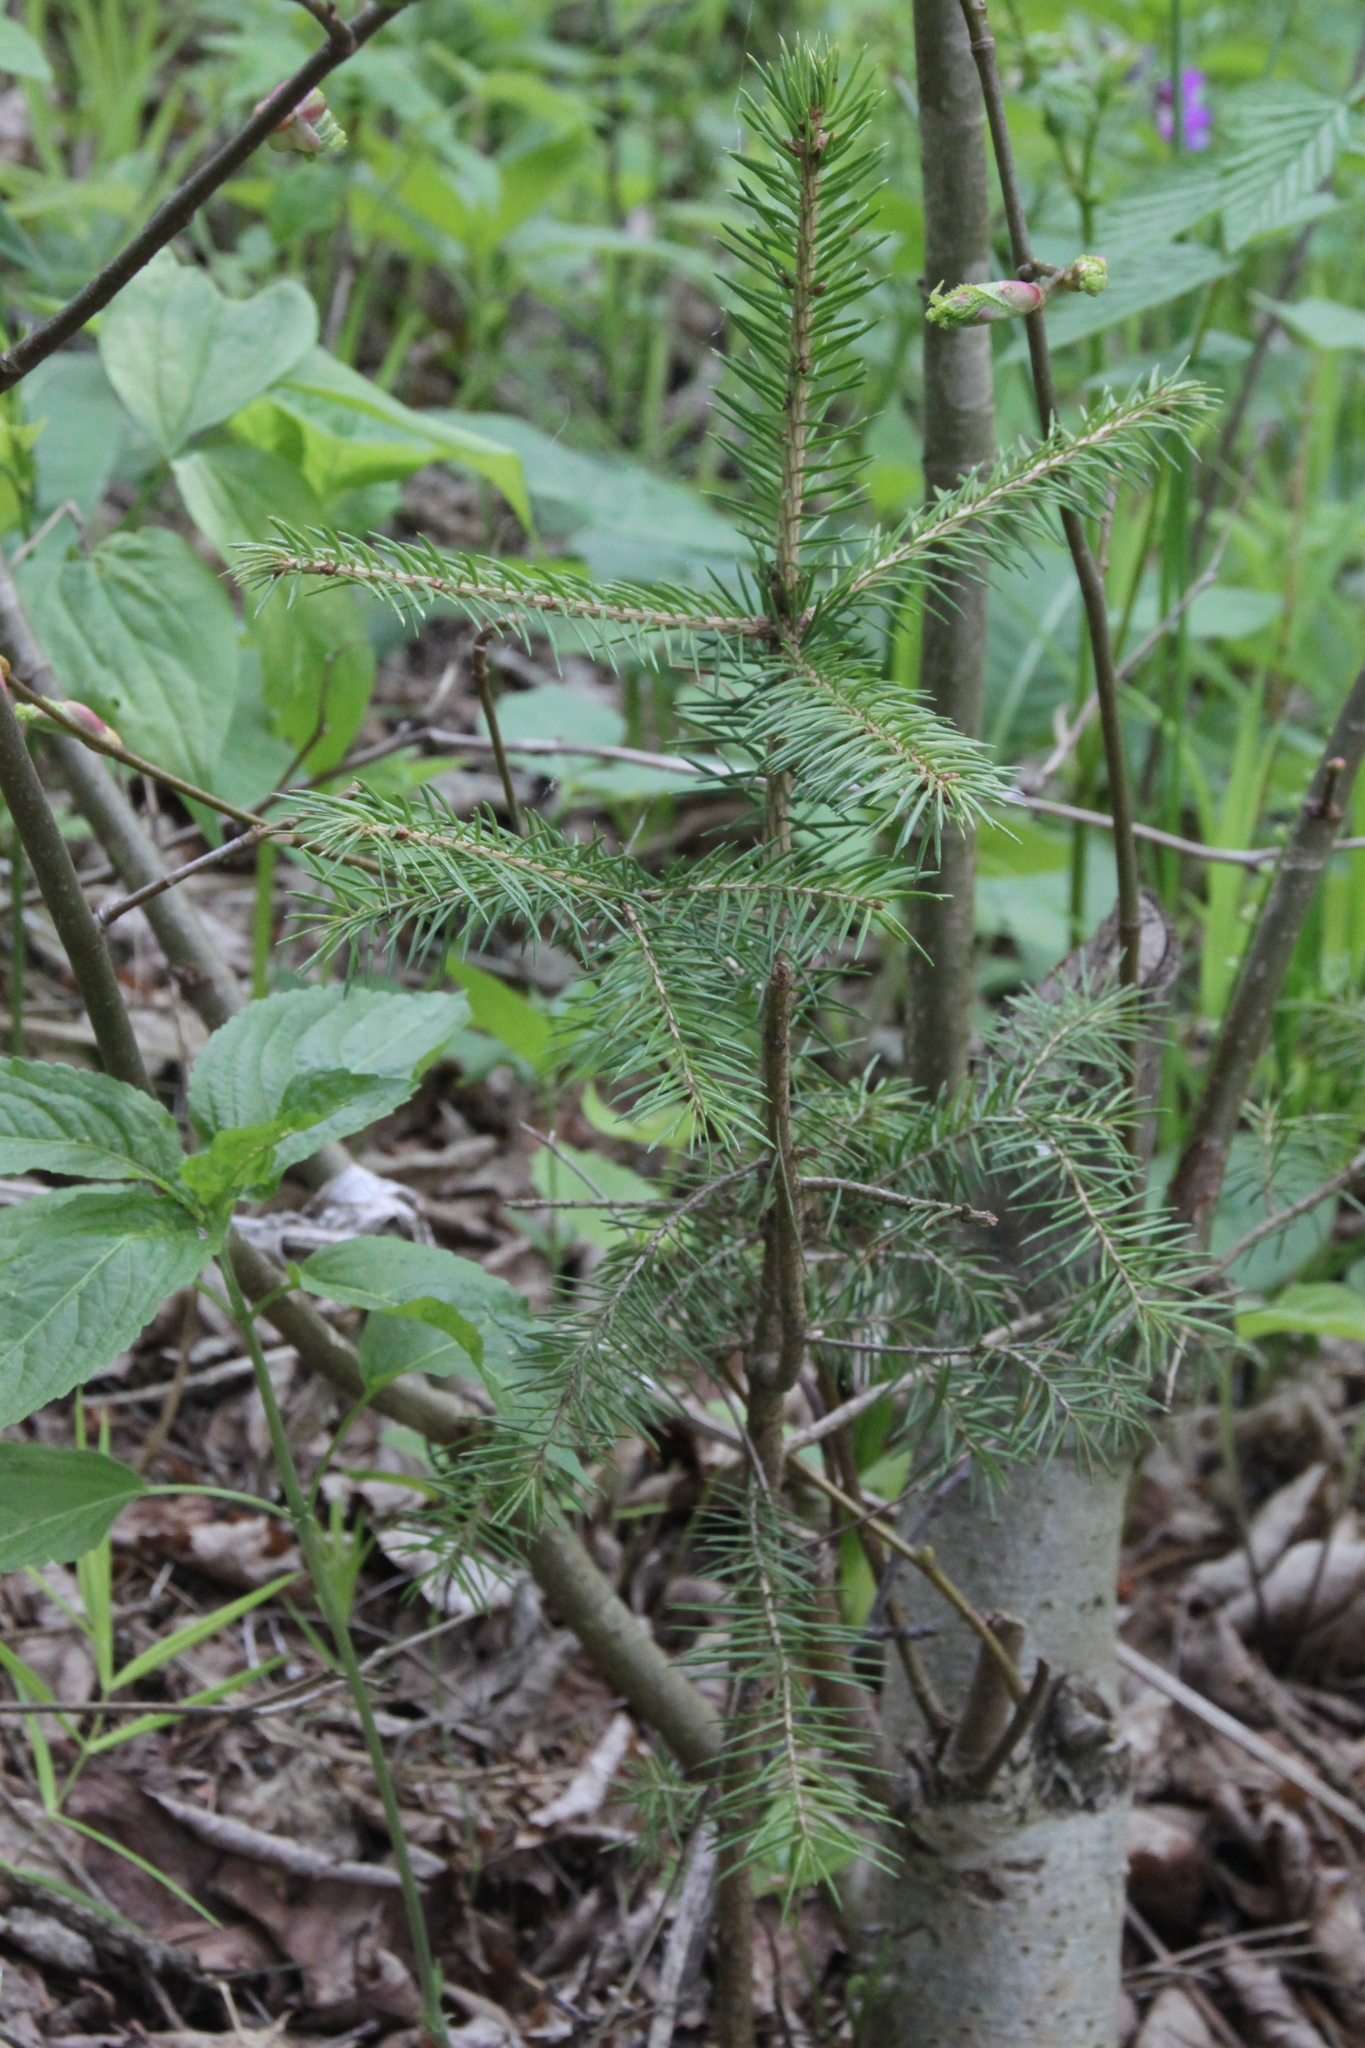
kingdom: Plantae
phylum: Tracheophyta
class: Pinopsida
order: Pinales
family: Pinaceae
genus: Picea
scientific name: Picea abies
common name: Norway spruce
